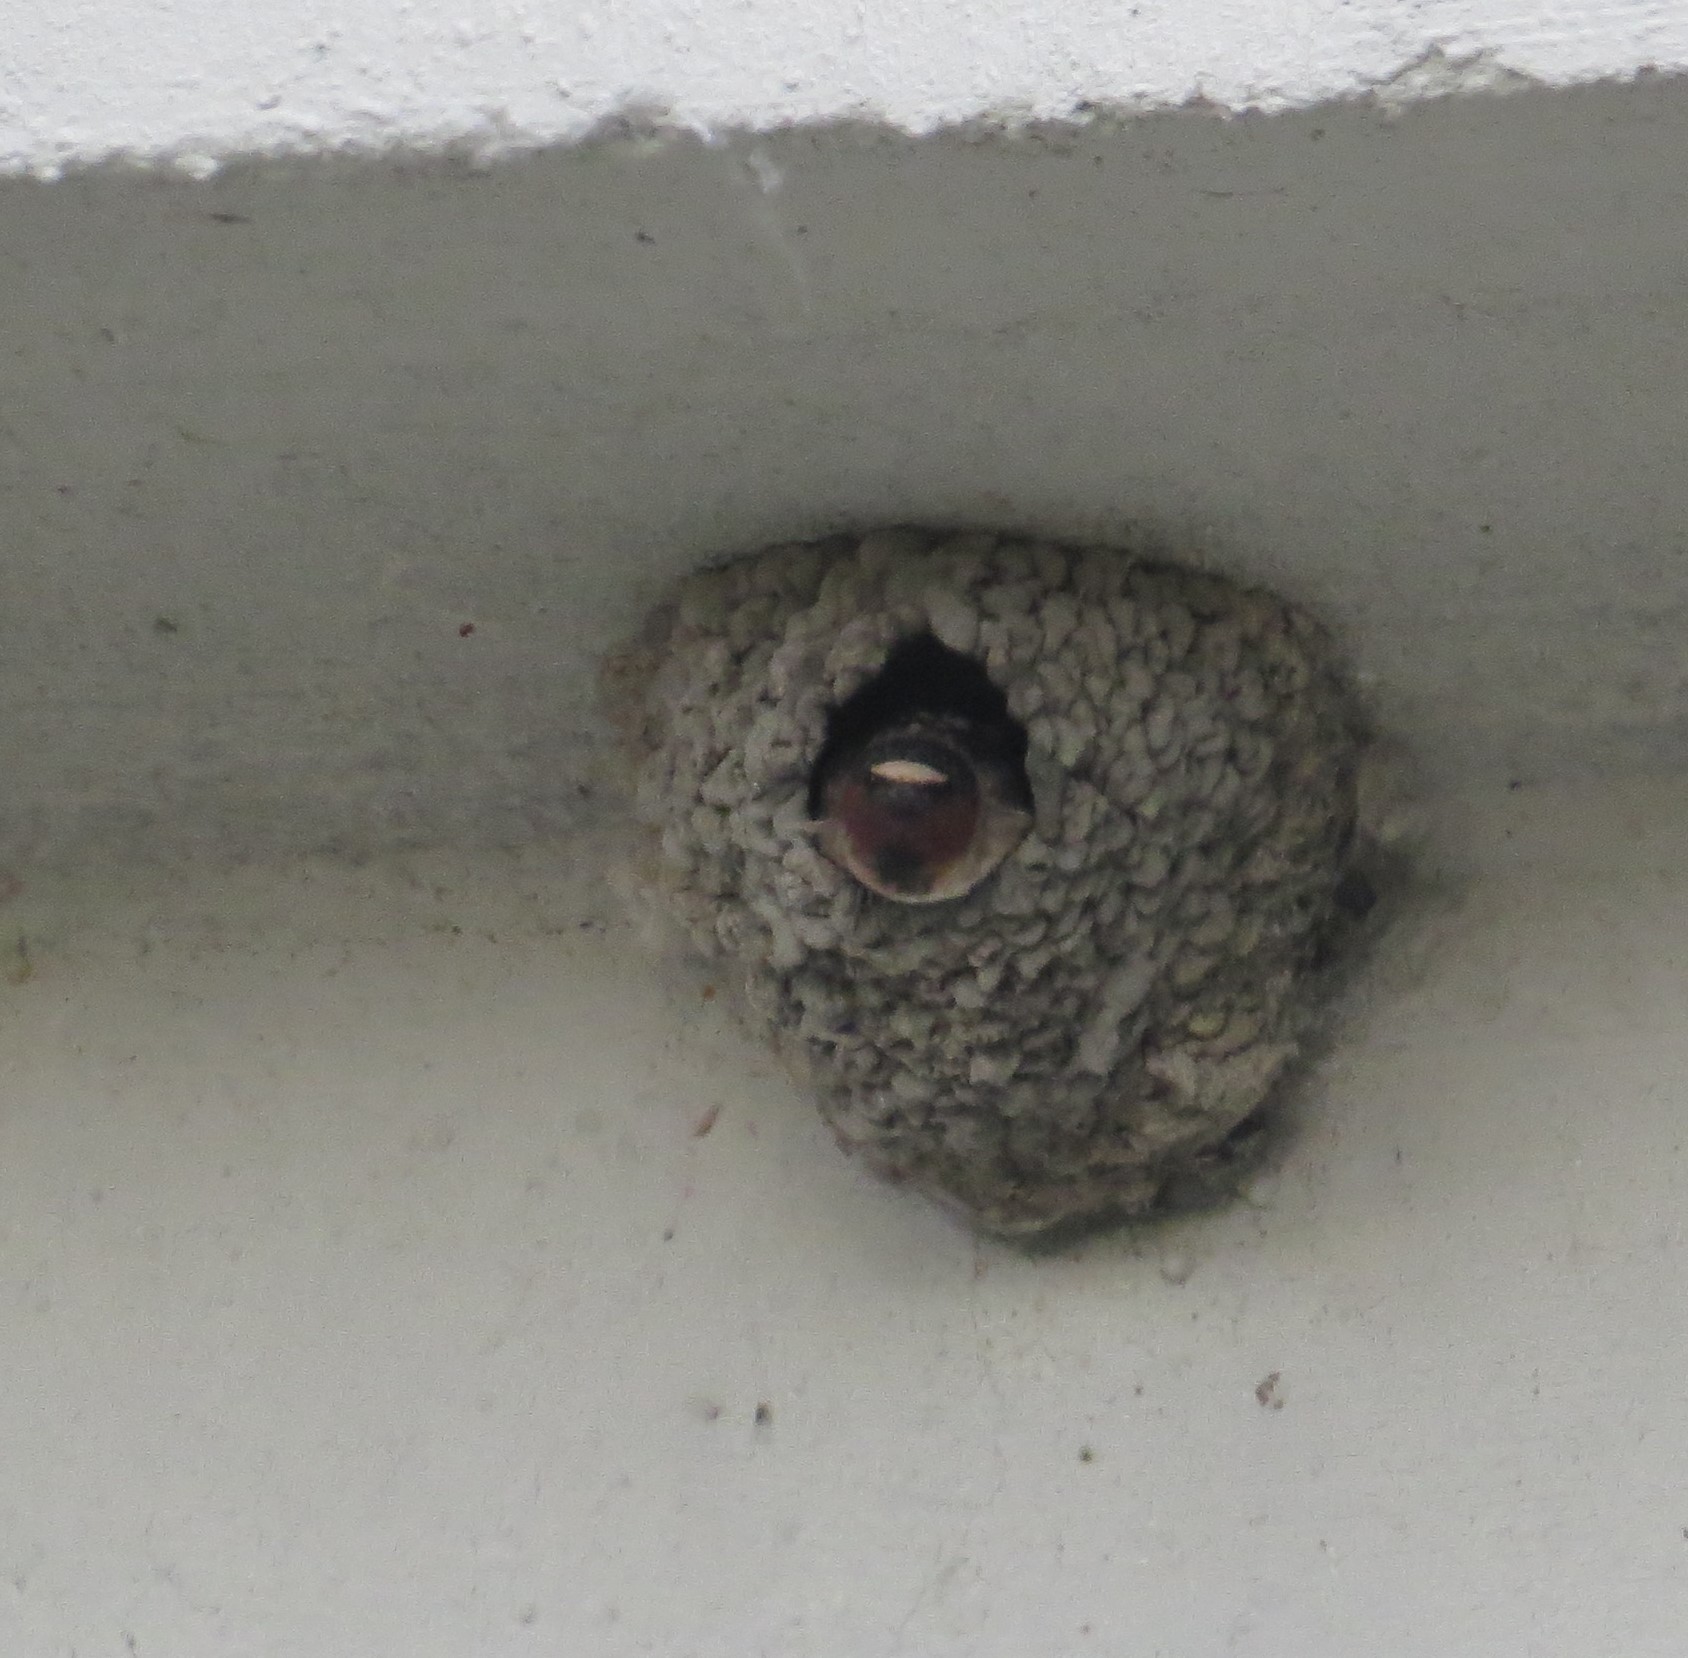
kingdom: Animalia
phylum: Chordata
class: Aves
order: Passeriformes
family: Hirundinidae
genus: Petrochelidon
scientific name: Petrochelidon pyrrhonota
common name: American cliff swallow
